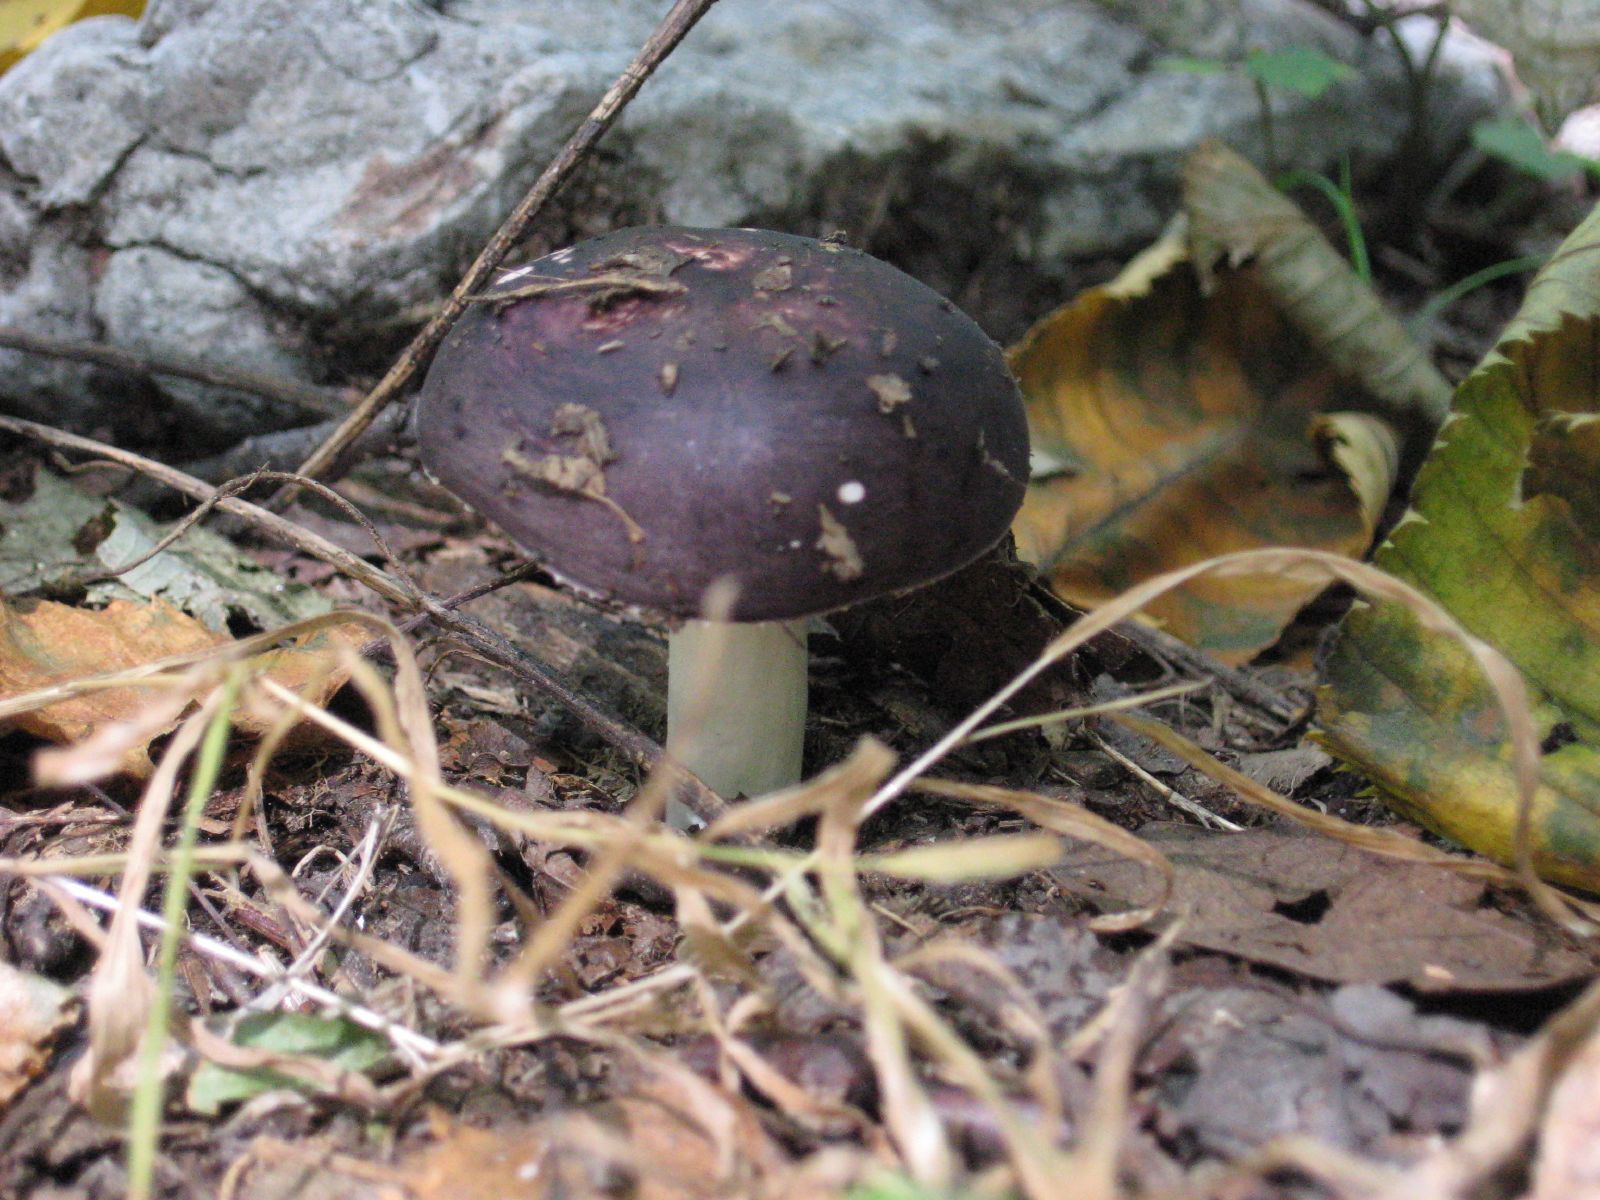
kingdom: Fungi
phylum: Basidiomycota
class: Agaricomycetes
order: Russulales
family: Russulaceae
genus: Russula
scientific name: Russula
